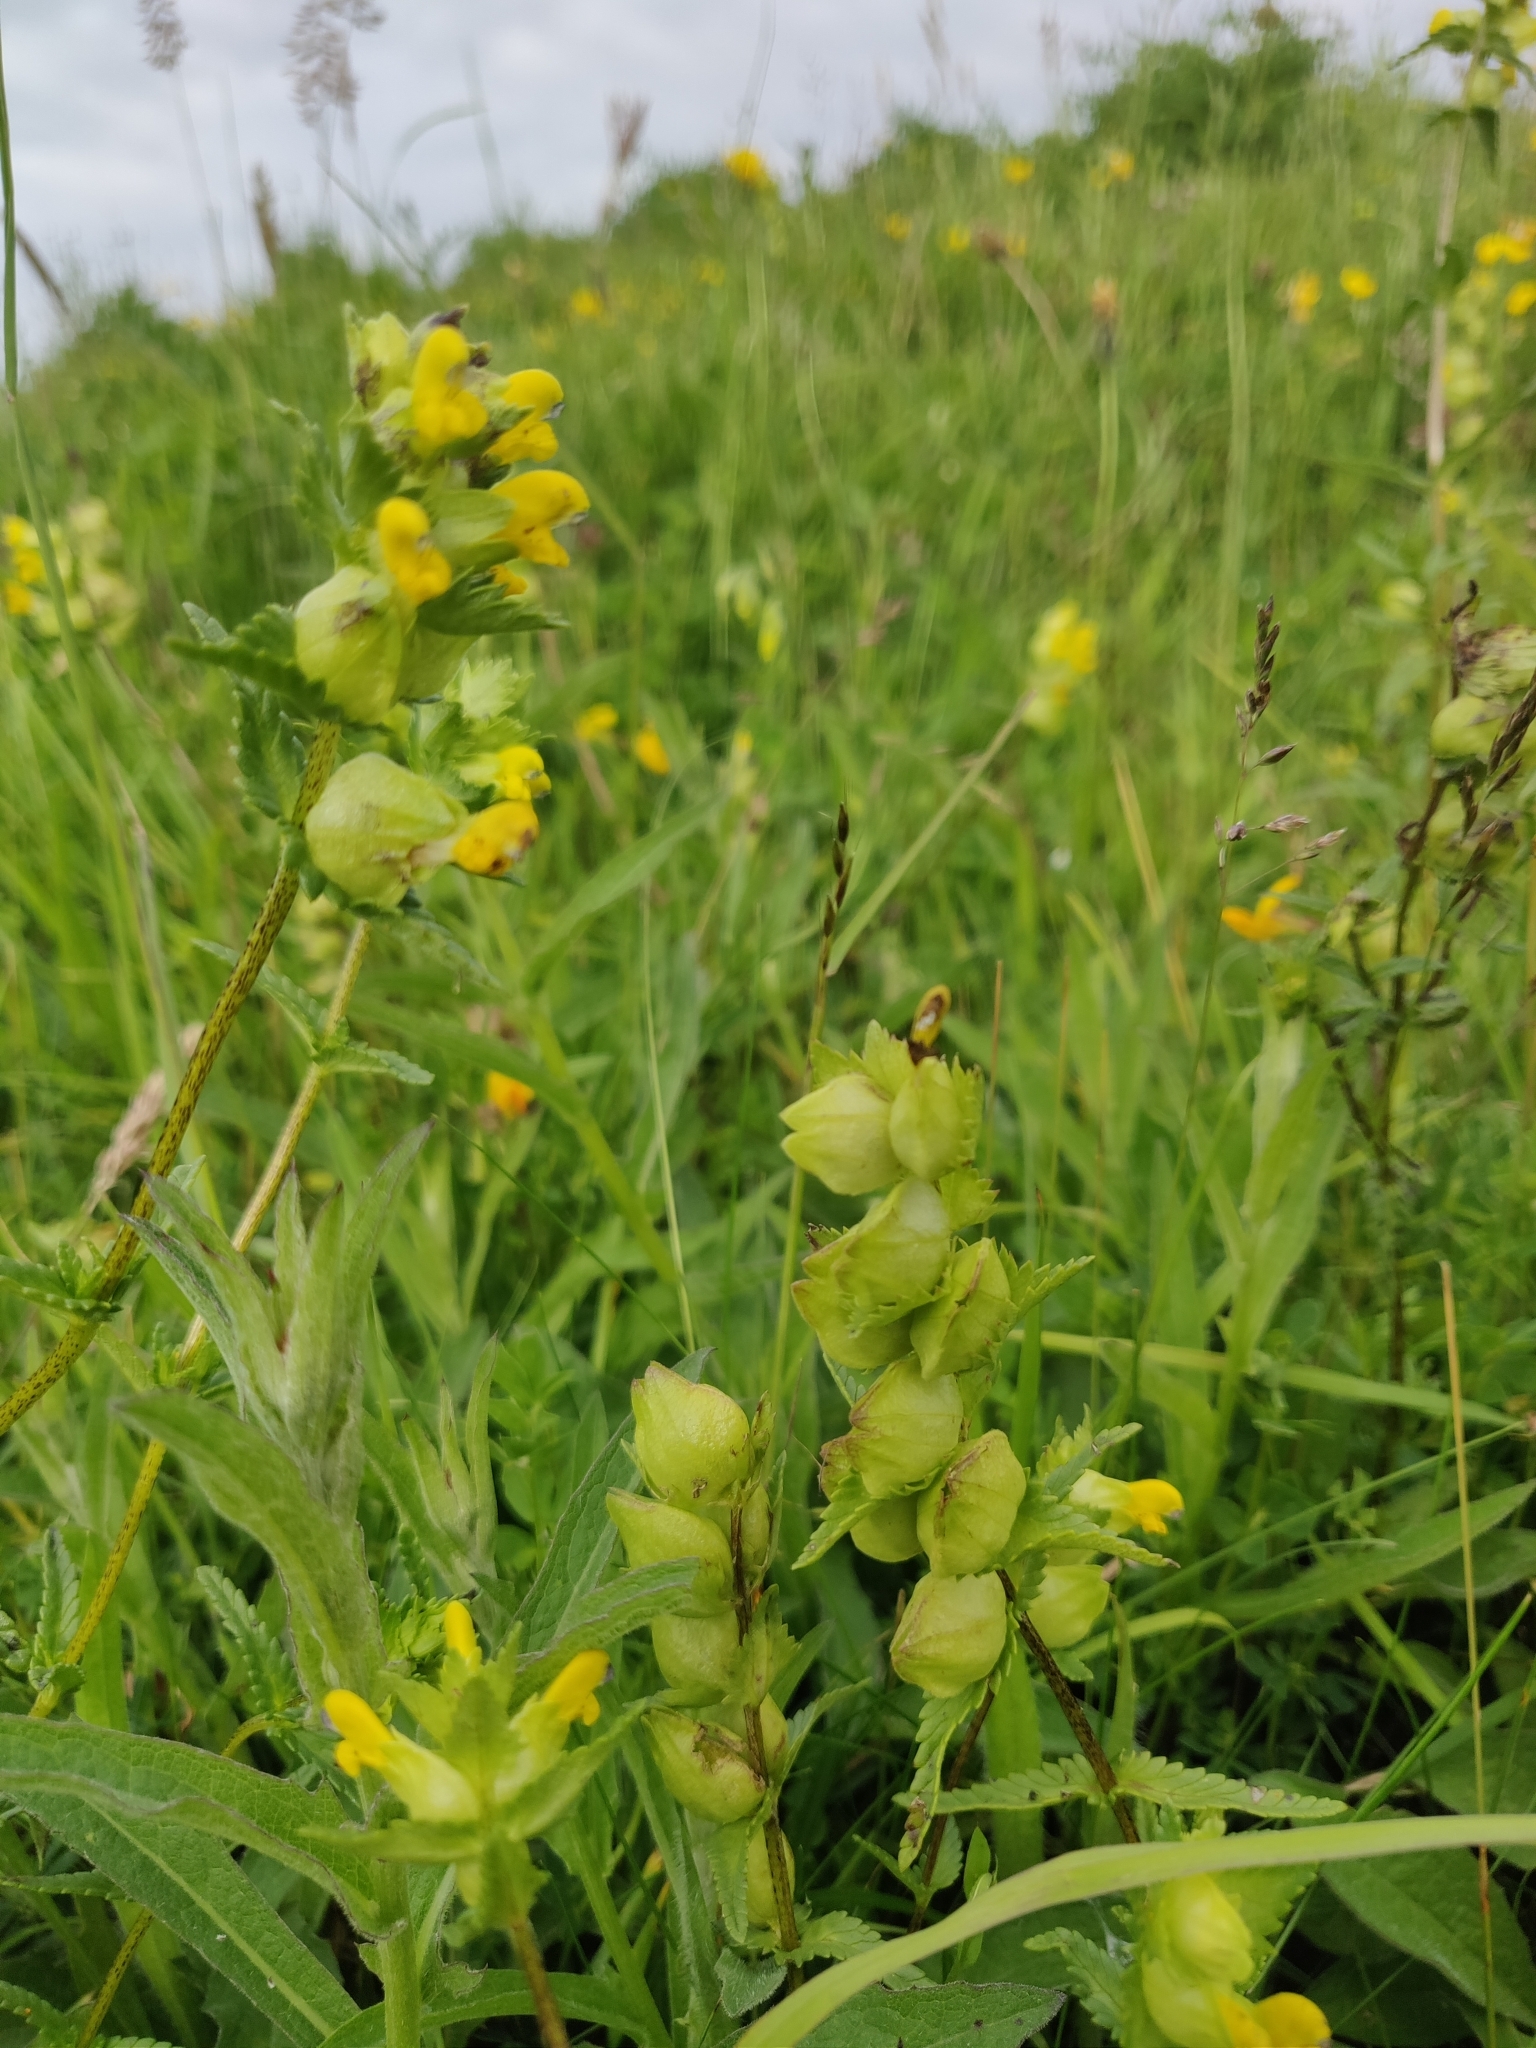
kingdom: Plantae
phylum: Tracheophyta
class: Magnoliopsida
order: Lamiales
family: Orobanchaceae
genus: Rhinanthus
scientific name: Rhinanthus minor
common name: Yellow-rattle
